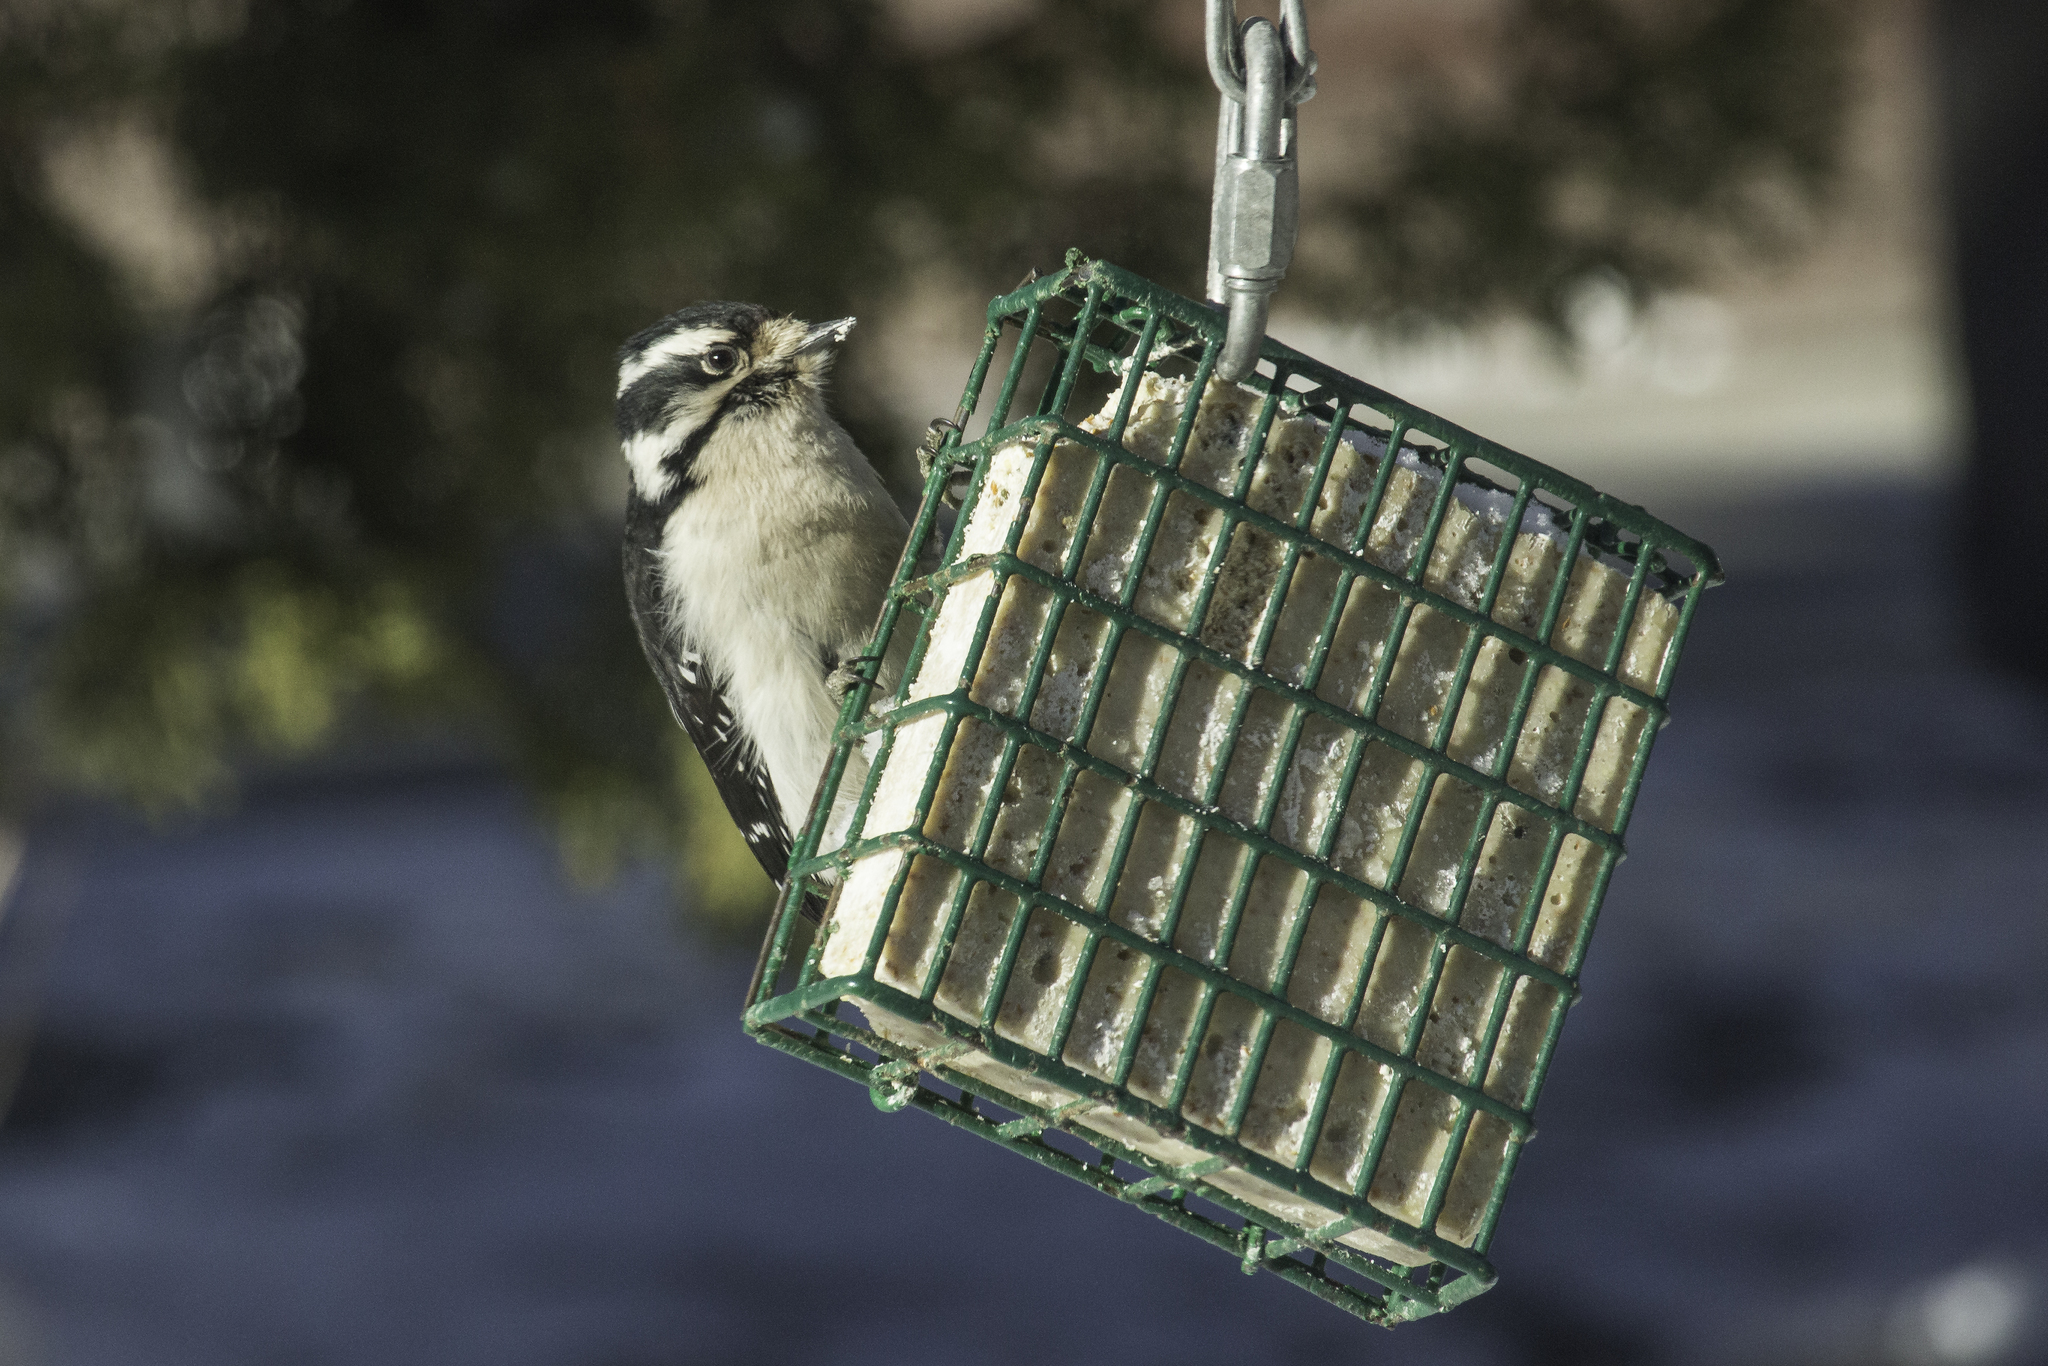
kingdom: Animalia
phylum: Chordata
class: Aves
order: Piciformes
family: Picidae
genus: Dryobates
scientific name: Dryobates pubescens
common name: Downy woodpecker
